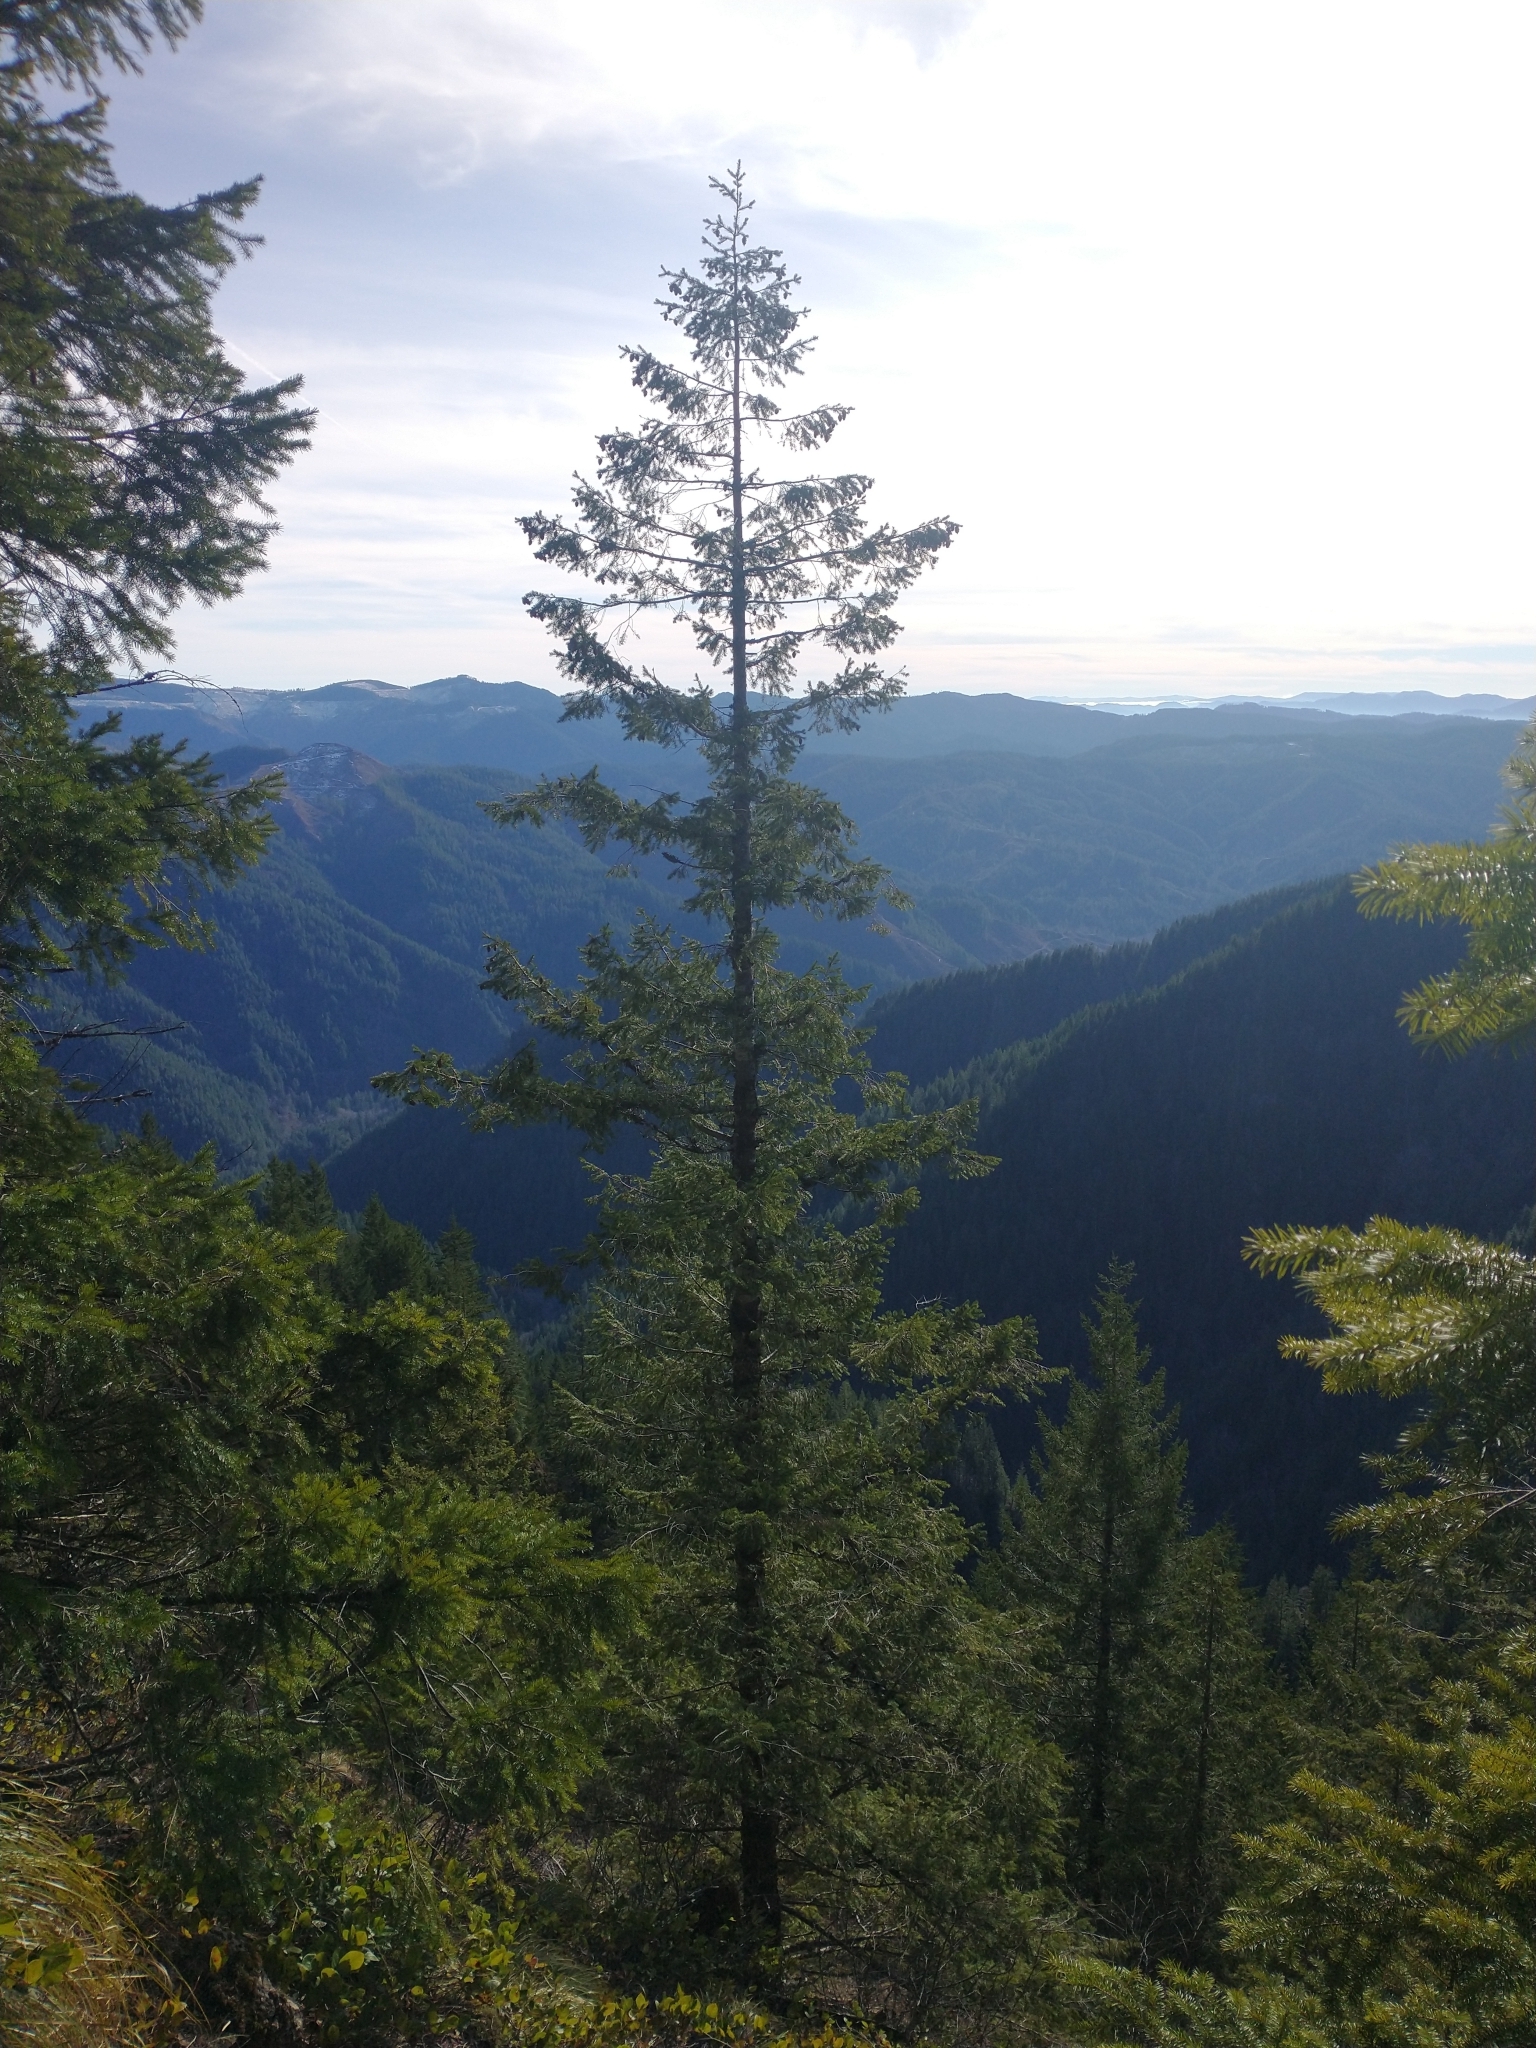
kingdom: Plantae
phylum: Tracheophyta
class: Pinopsida
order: Pinales
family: Pinaceae
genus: Pseudotsuga
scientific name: Pseudotsuga menziesii
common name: Douglas fir
